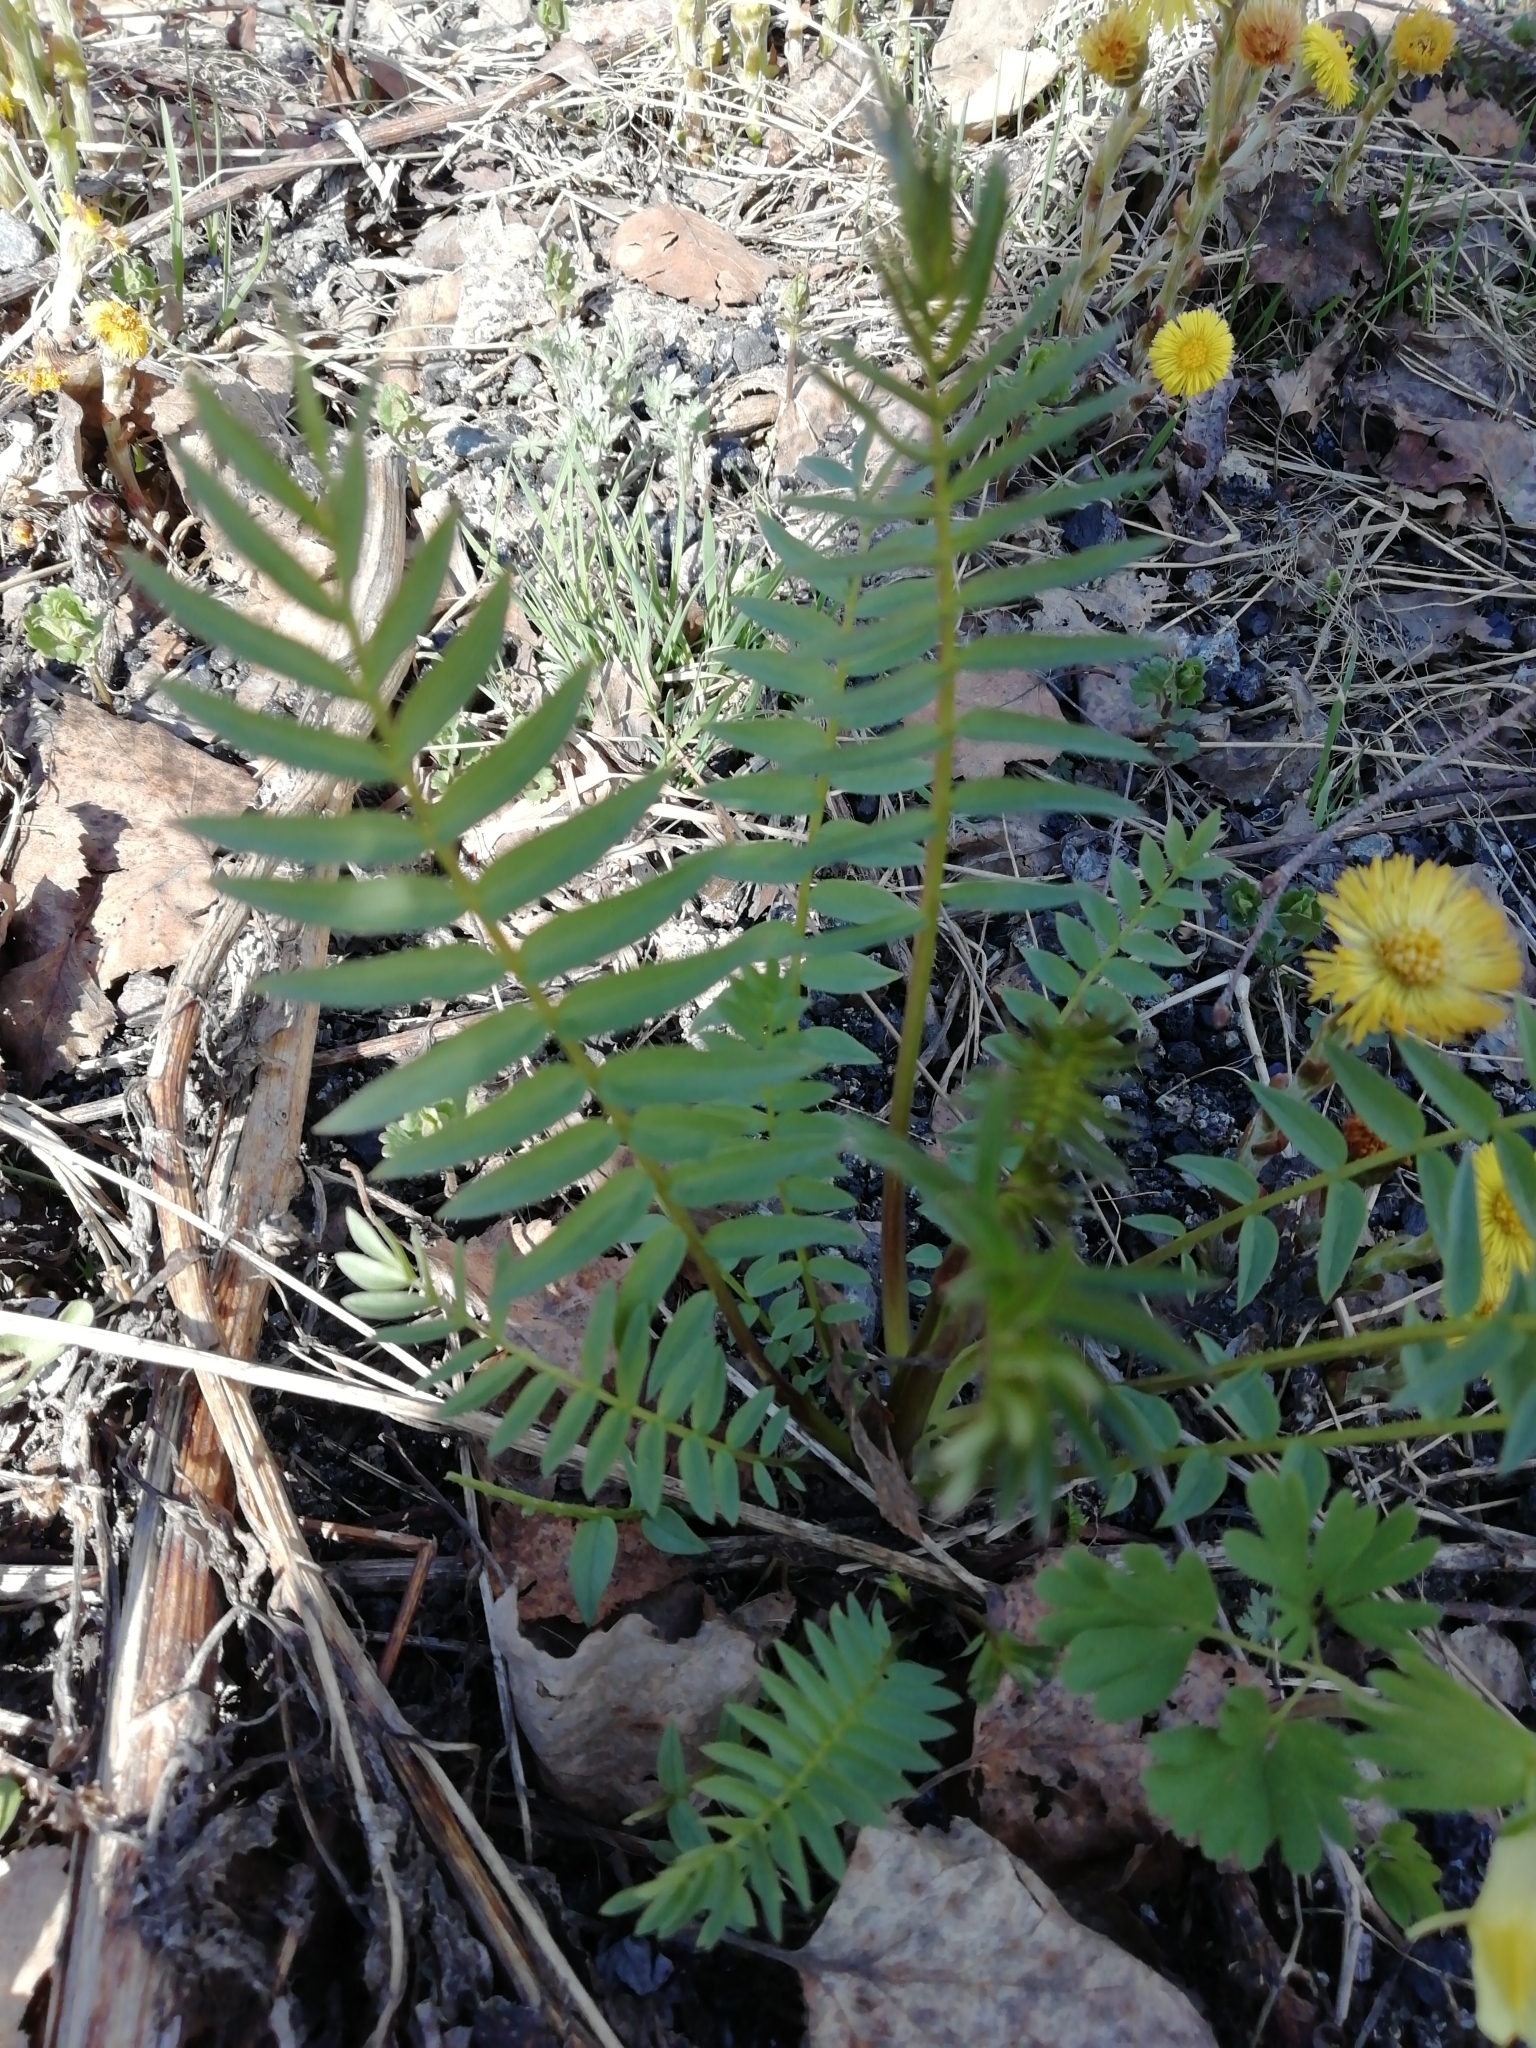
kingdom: Plantae
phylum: Tracheophyta
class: Magnoliopsida
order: Ericales
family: Polemoniaceae
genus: Polemonium
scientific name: Polemonium caeruleum
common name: Jacob's-ladder
